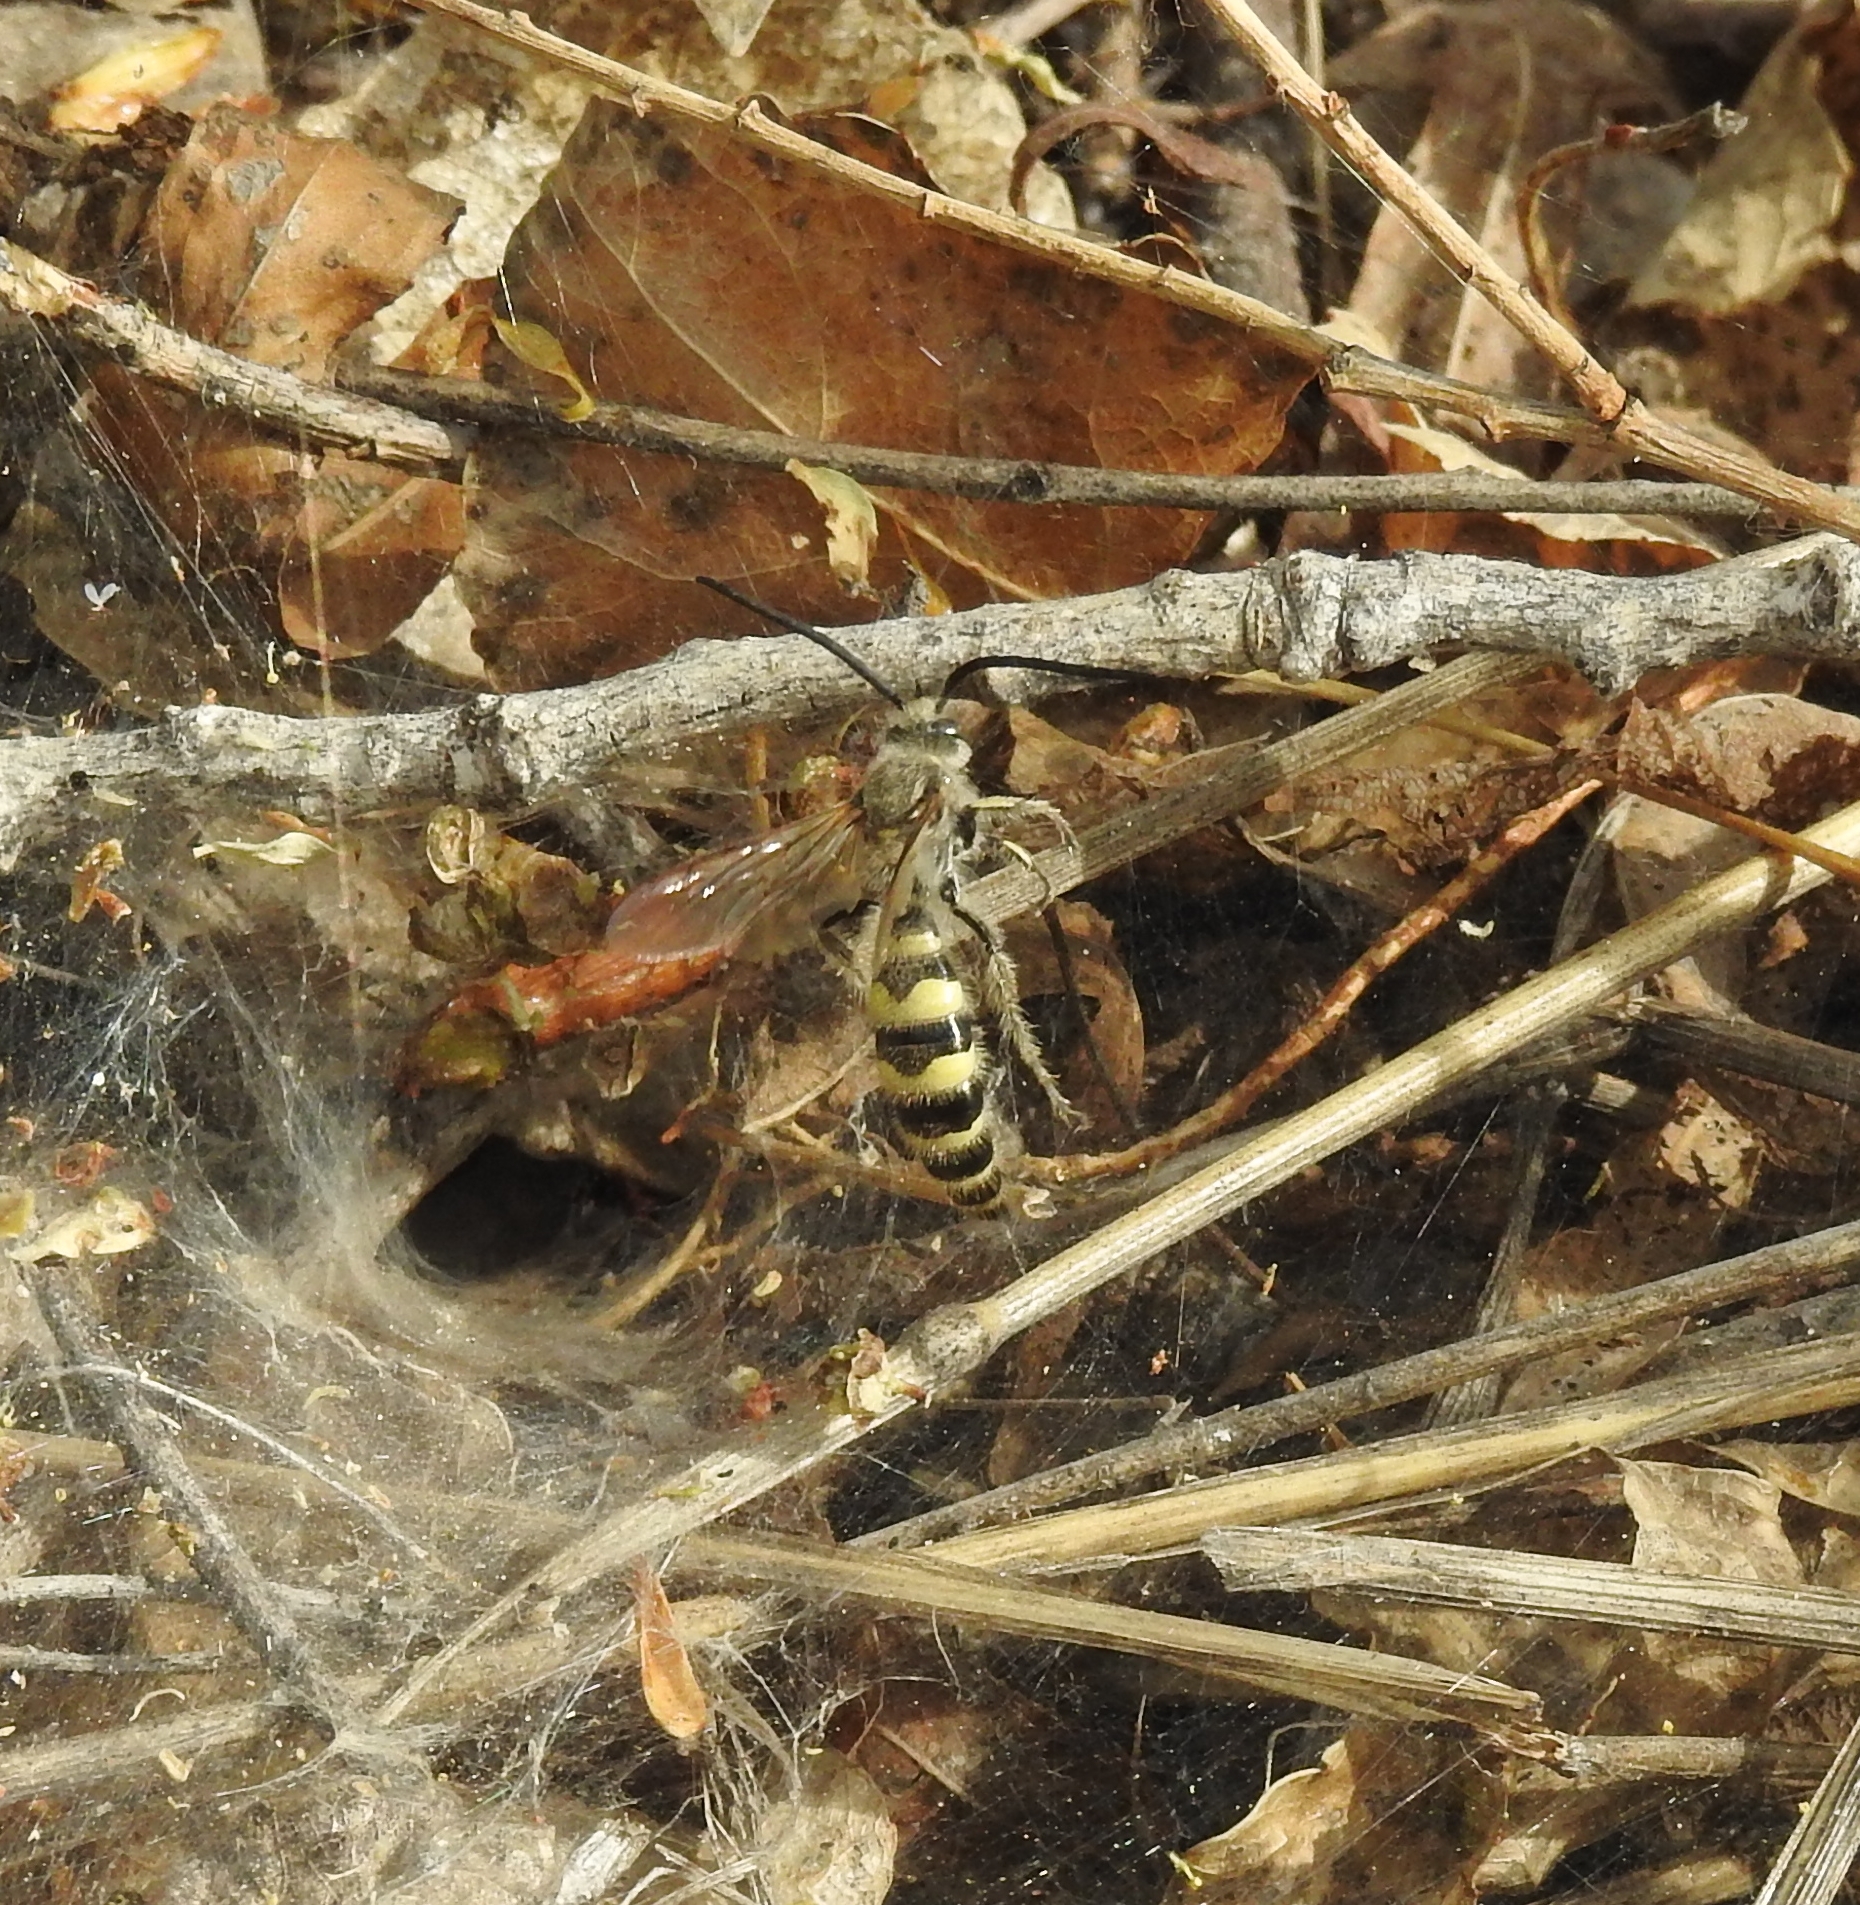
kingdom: Animalia
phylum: Arthropoda
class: Insecta
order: Hymenoptera
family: Scoliidae
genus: Dielis
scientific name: Dielis
